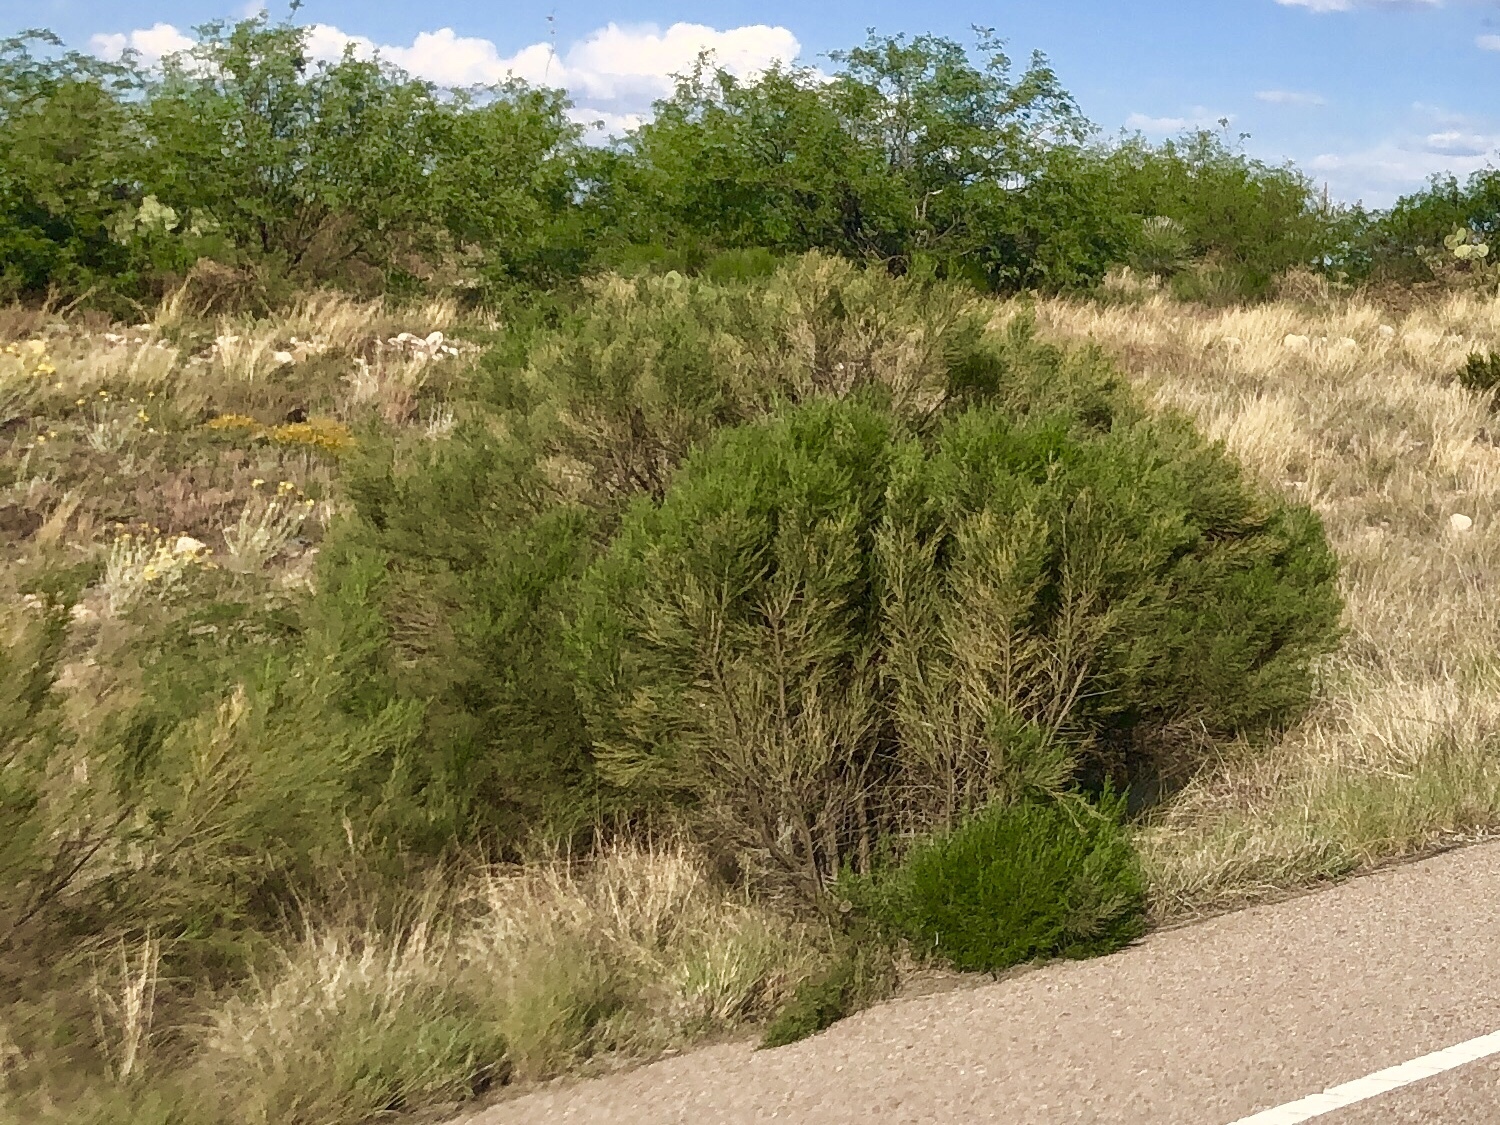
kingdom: Plantae
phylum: Tracheophyta
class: Magnoliopsida
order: Asterales
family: Asteraceae
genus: Baccharis
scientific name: Baccharis sarothroides
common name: Desert-broom
